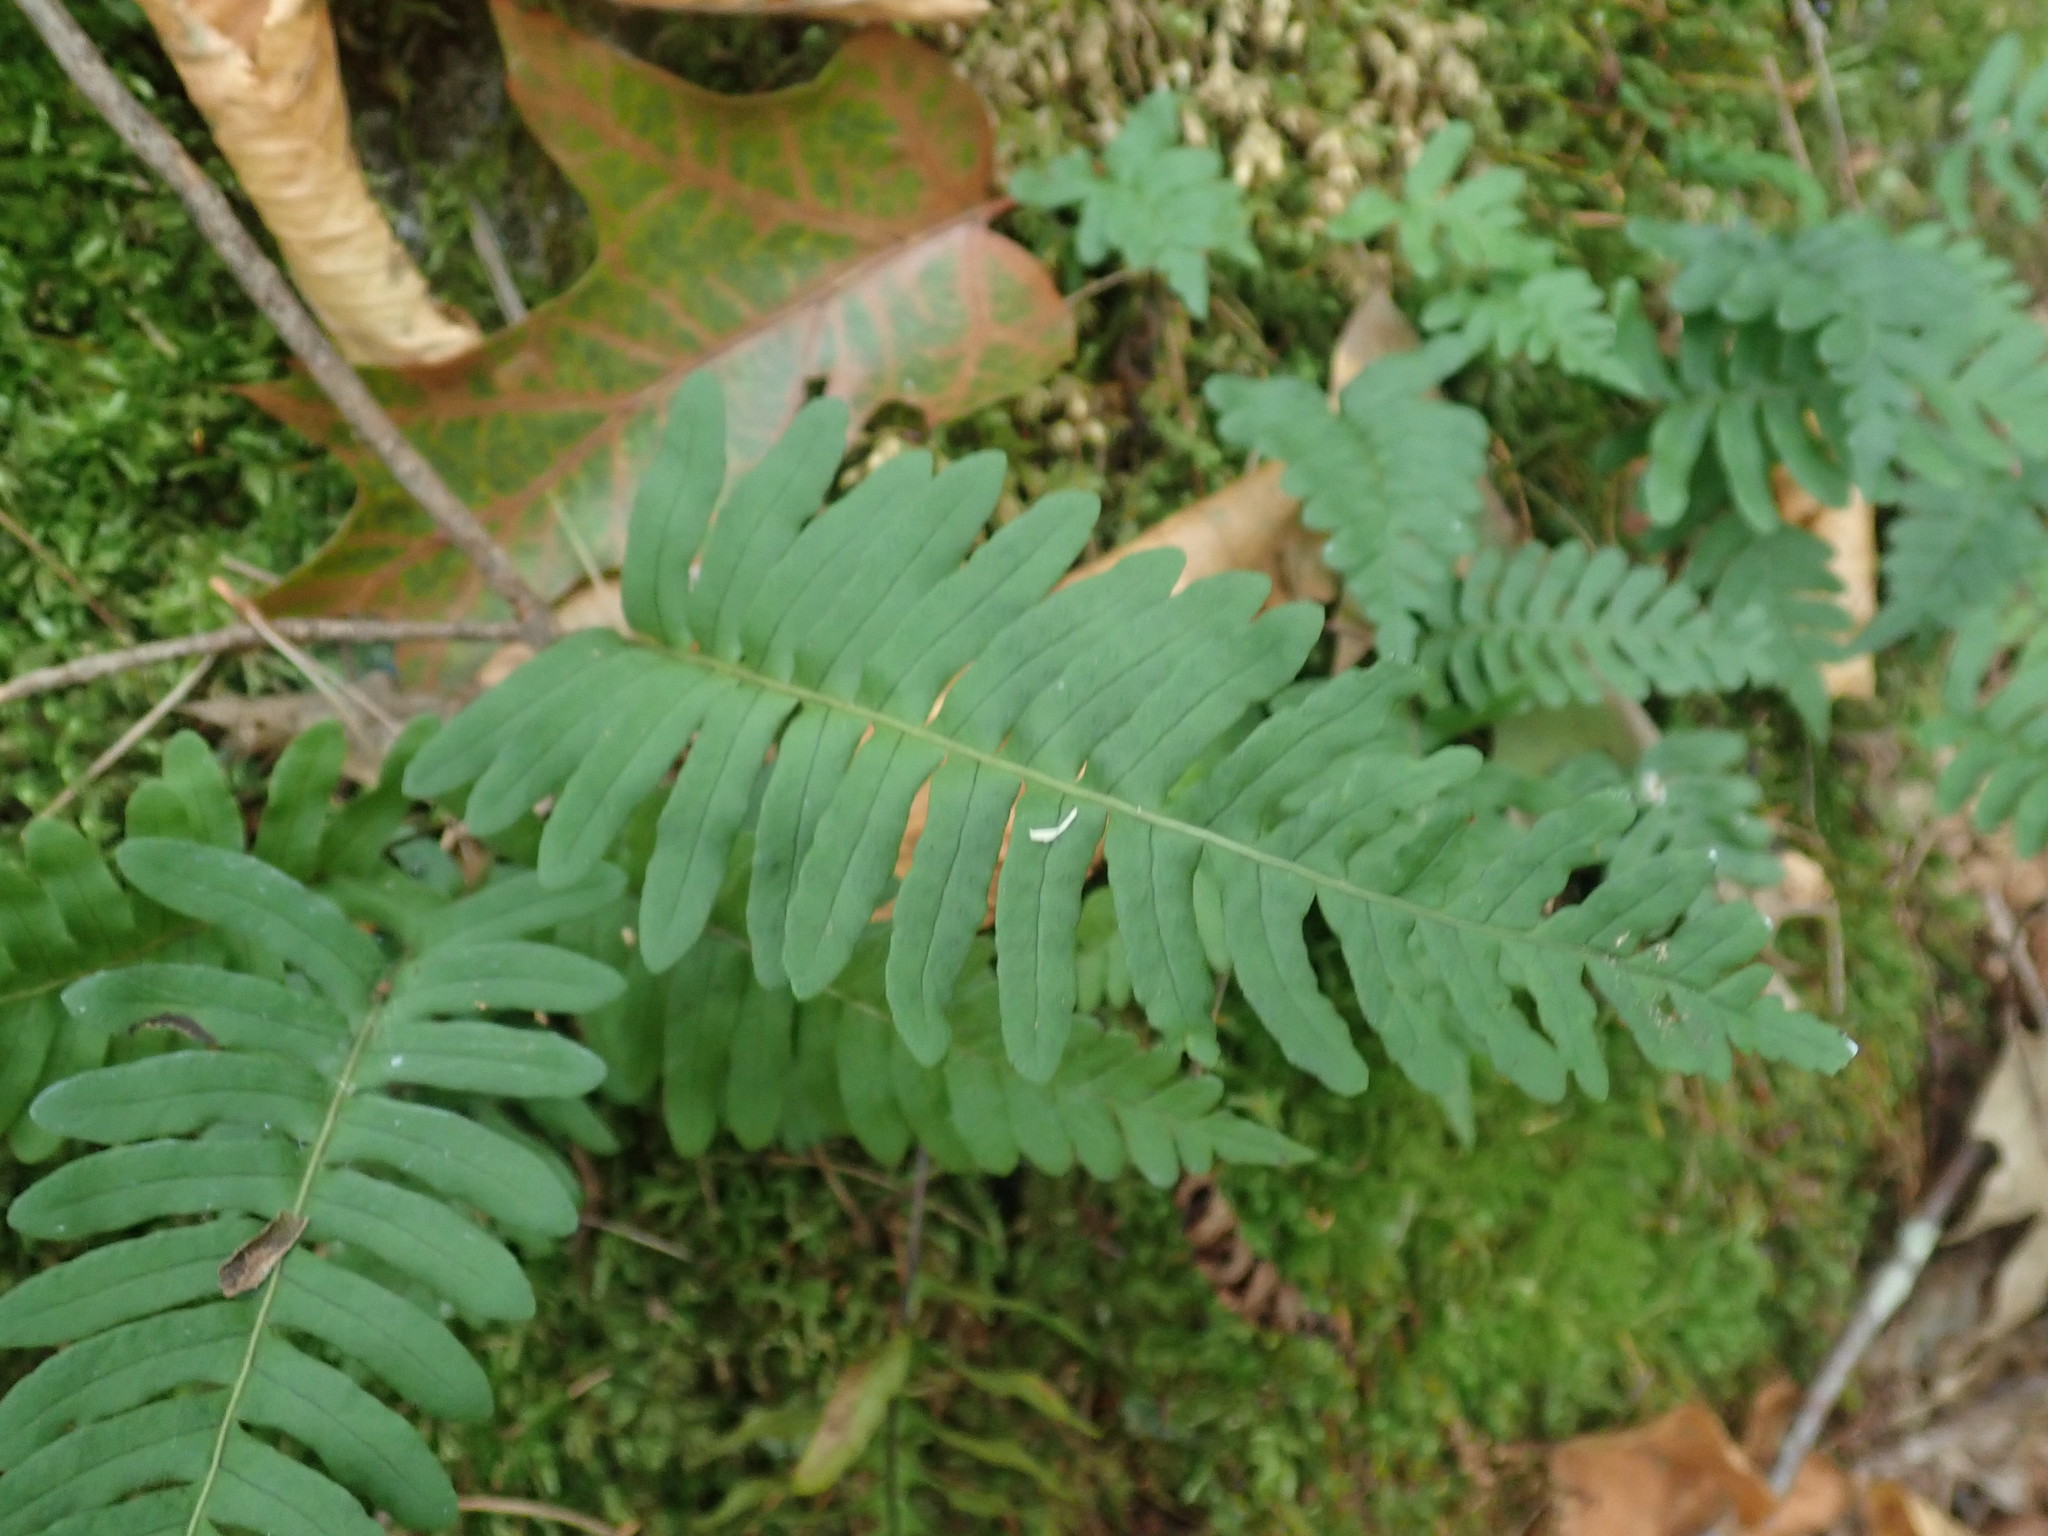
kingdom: Plantae
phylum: Tracheophyta
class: Polypodiopsida
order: Polypodiales
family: Polypodiaceae
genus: Polypodium
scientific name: Polypodium
